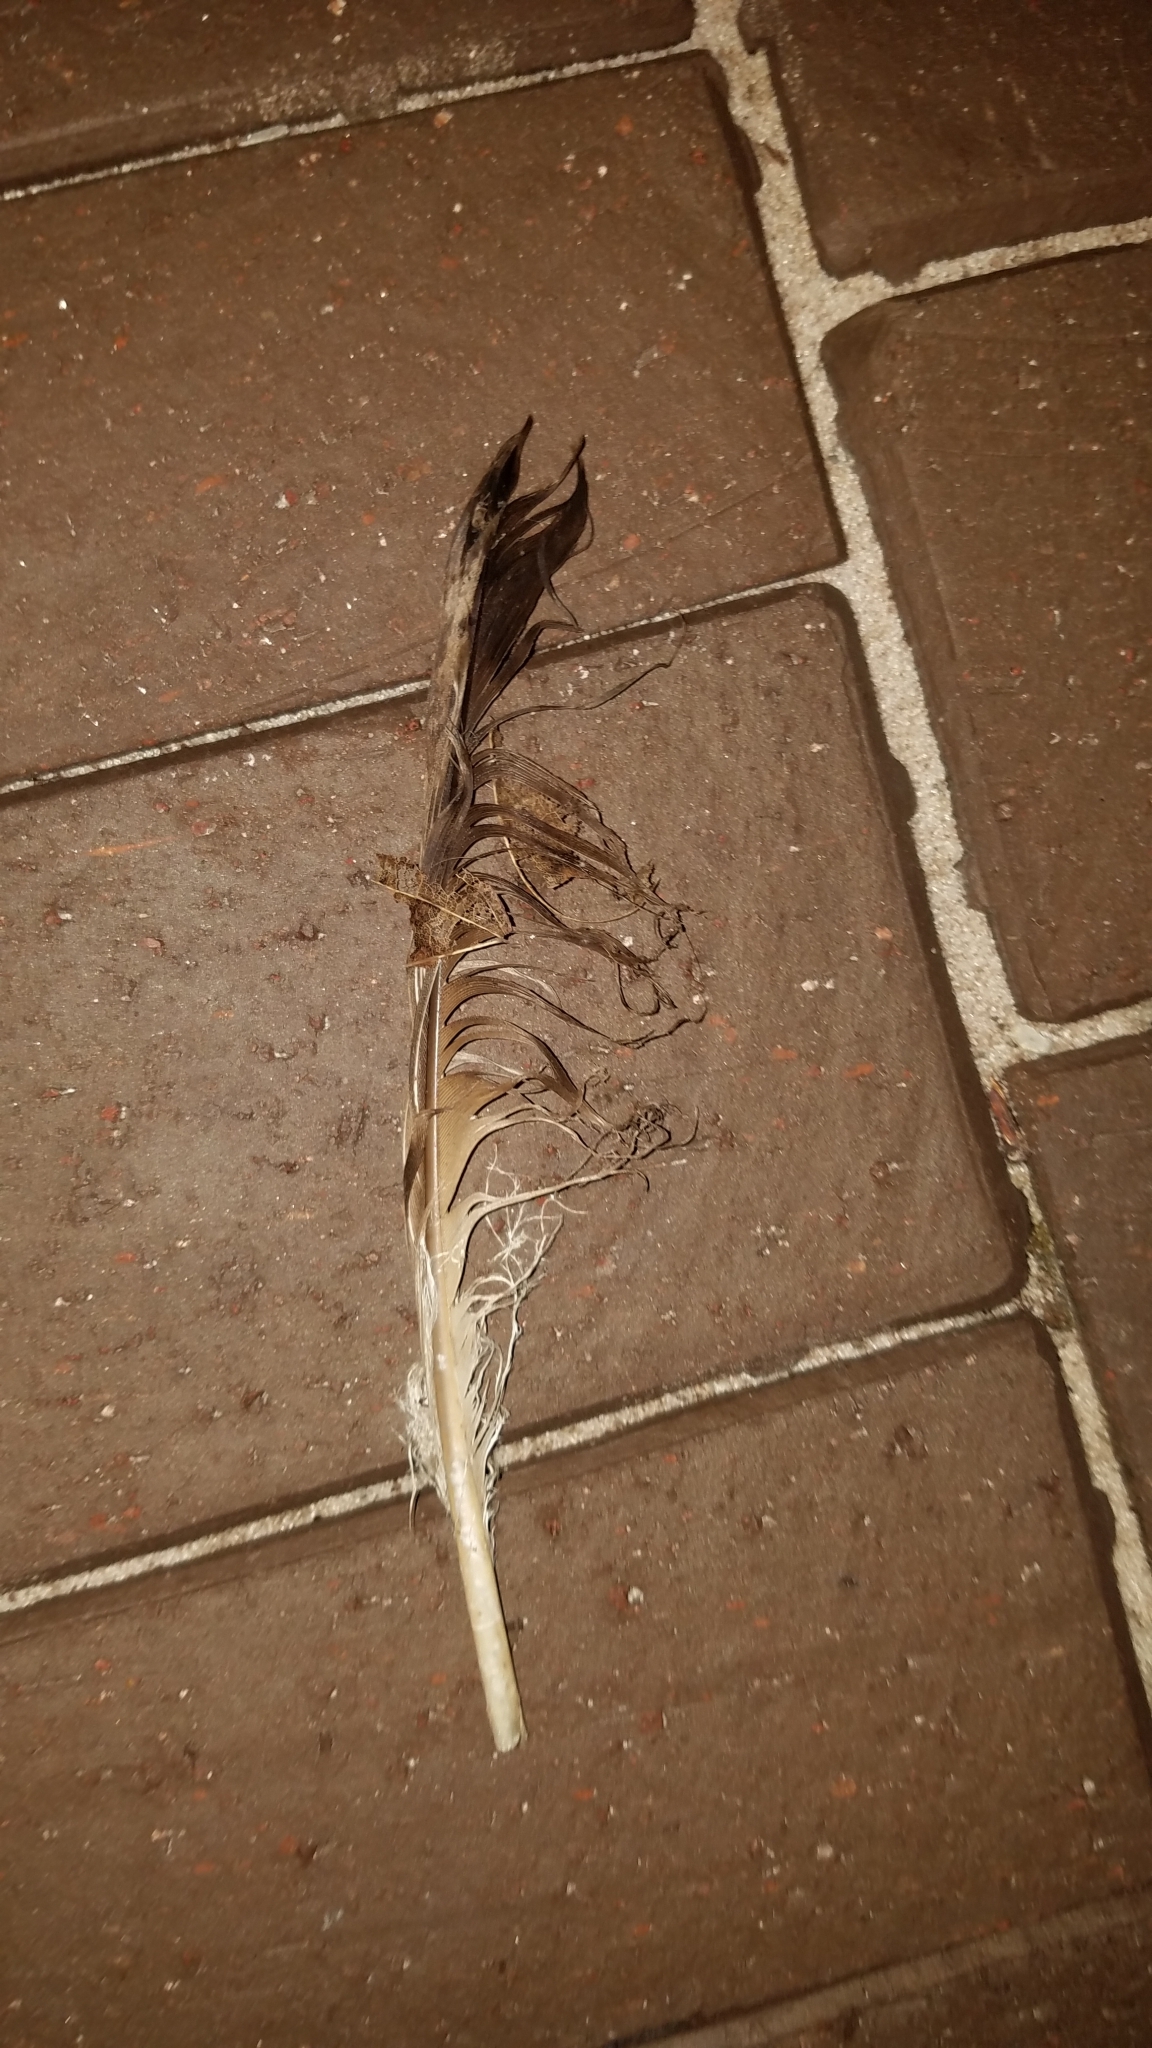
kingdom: Animalia
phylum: Chordata
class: Aves
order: Anseriformes
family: Anatidae
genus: Branta
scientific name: Branta canadensis
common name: Canada goose
